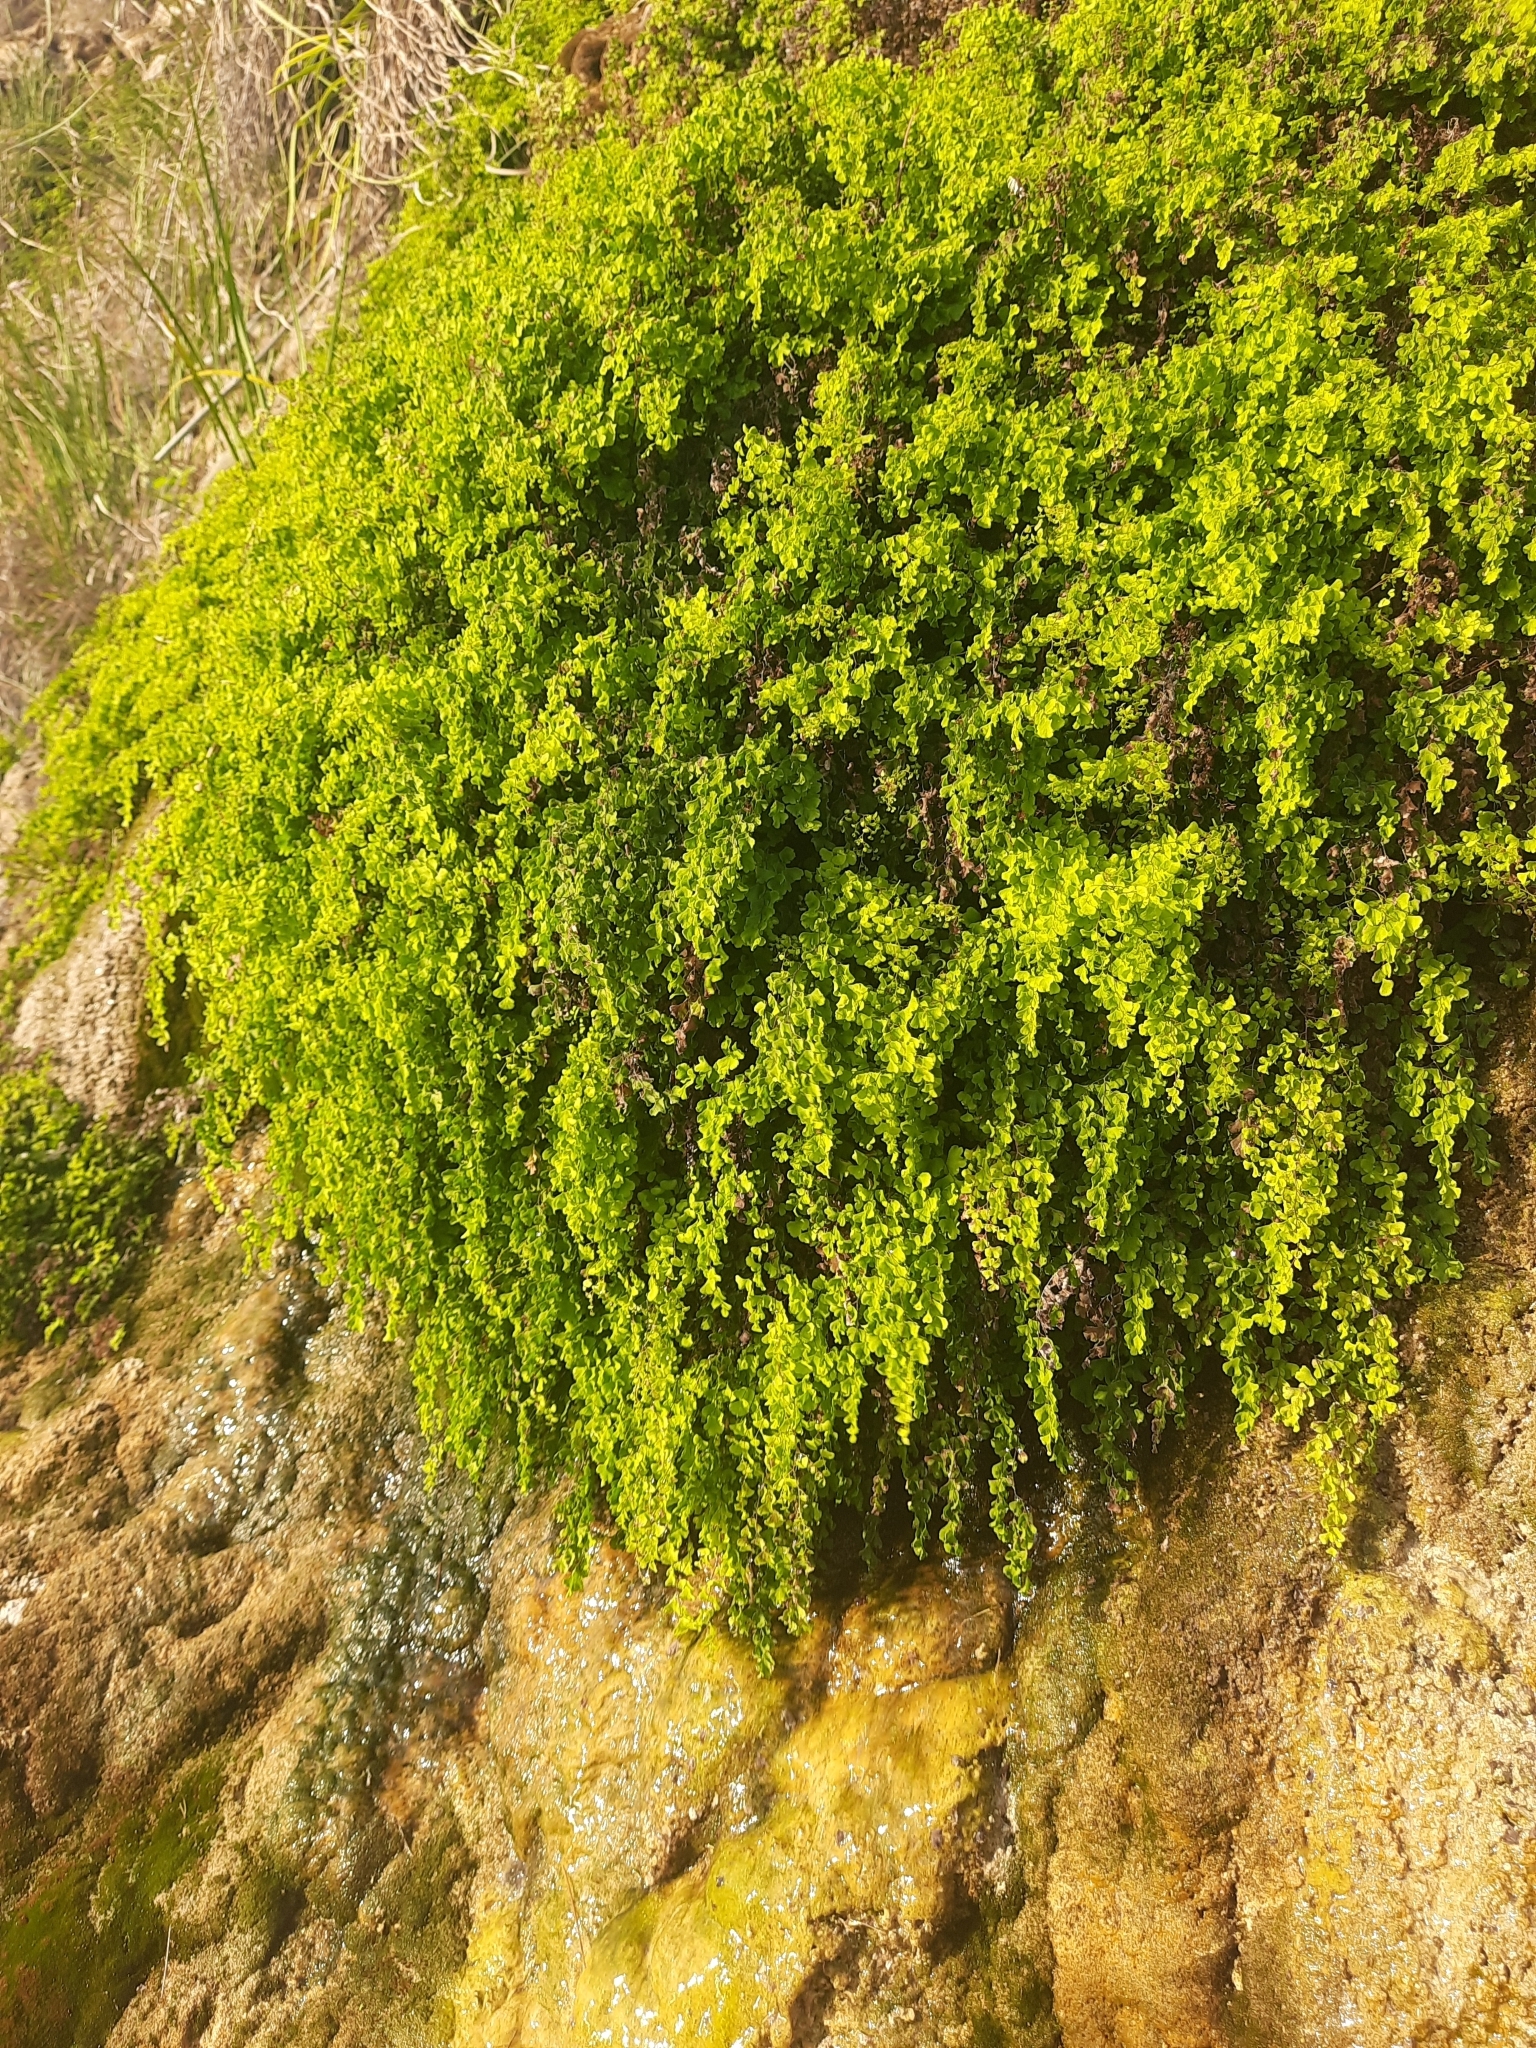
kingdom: Plantae
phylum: Tracheophyta
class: Polypodiopsida
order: Polypodiales
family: Pteridaceae
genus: Adiantum
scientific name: Adiantum capillus-veneris
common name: Maidenhair fern
